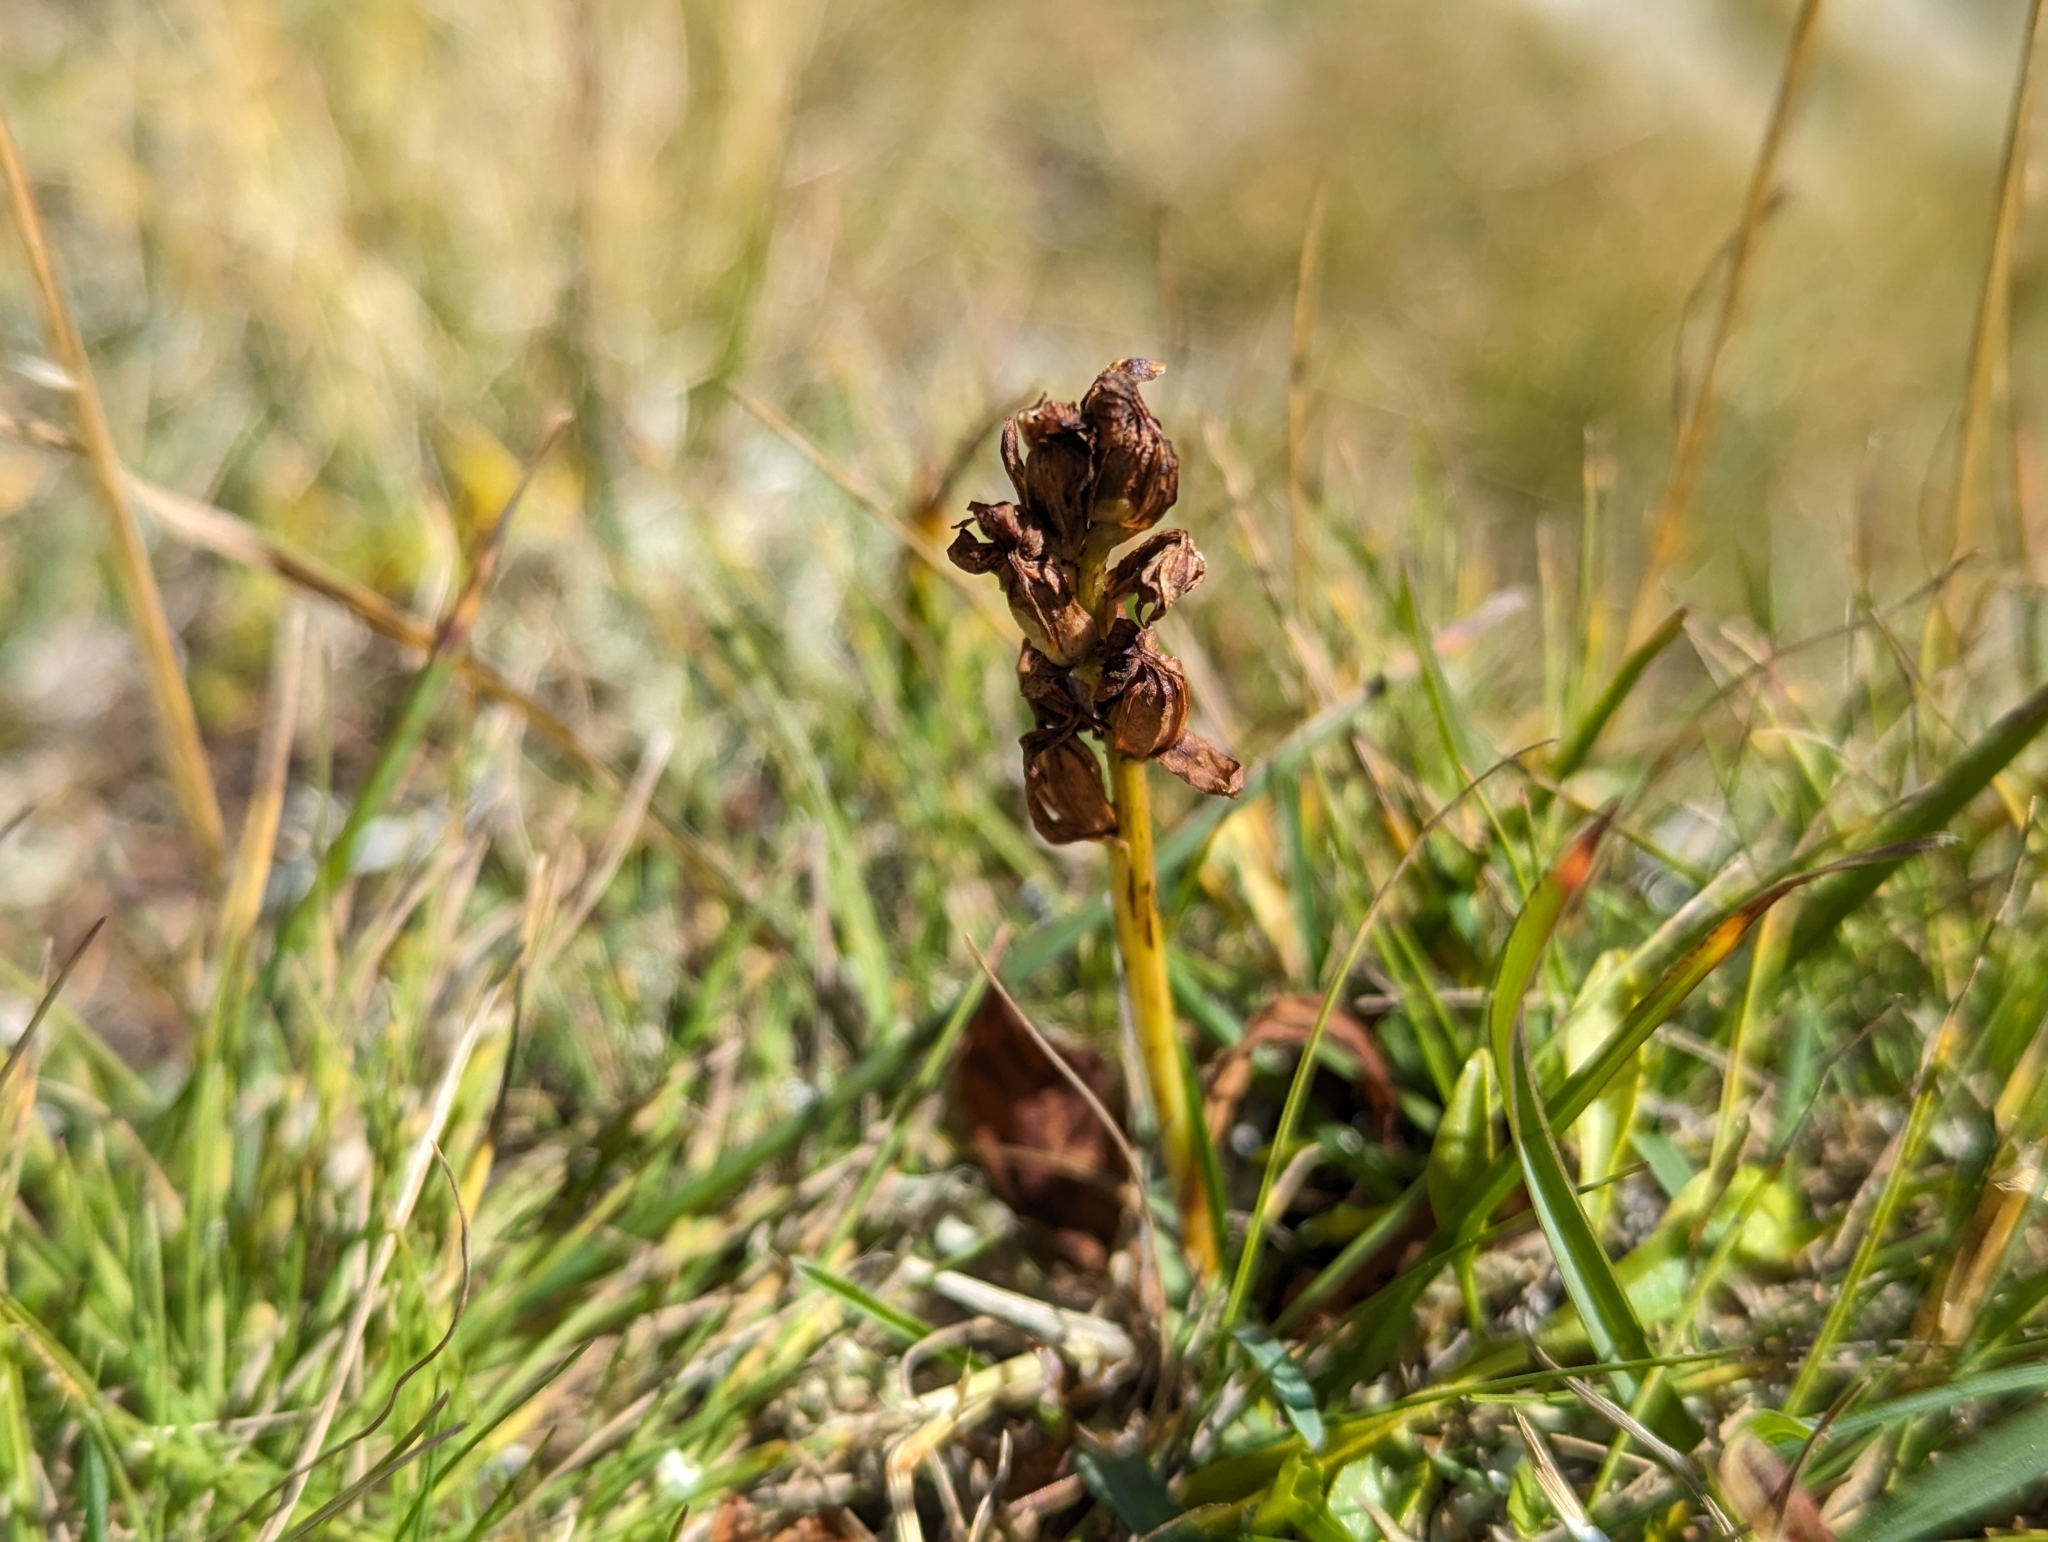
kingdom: Plantae
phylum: Tracheophyta
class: Liliopsida
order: Asparagales
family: Orchidaceae
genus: Dactylorhiza
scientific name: Dactylorhiza viridis
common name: Longbract frog orchid
